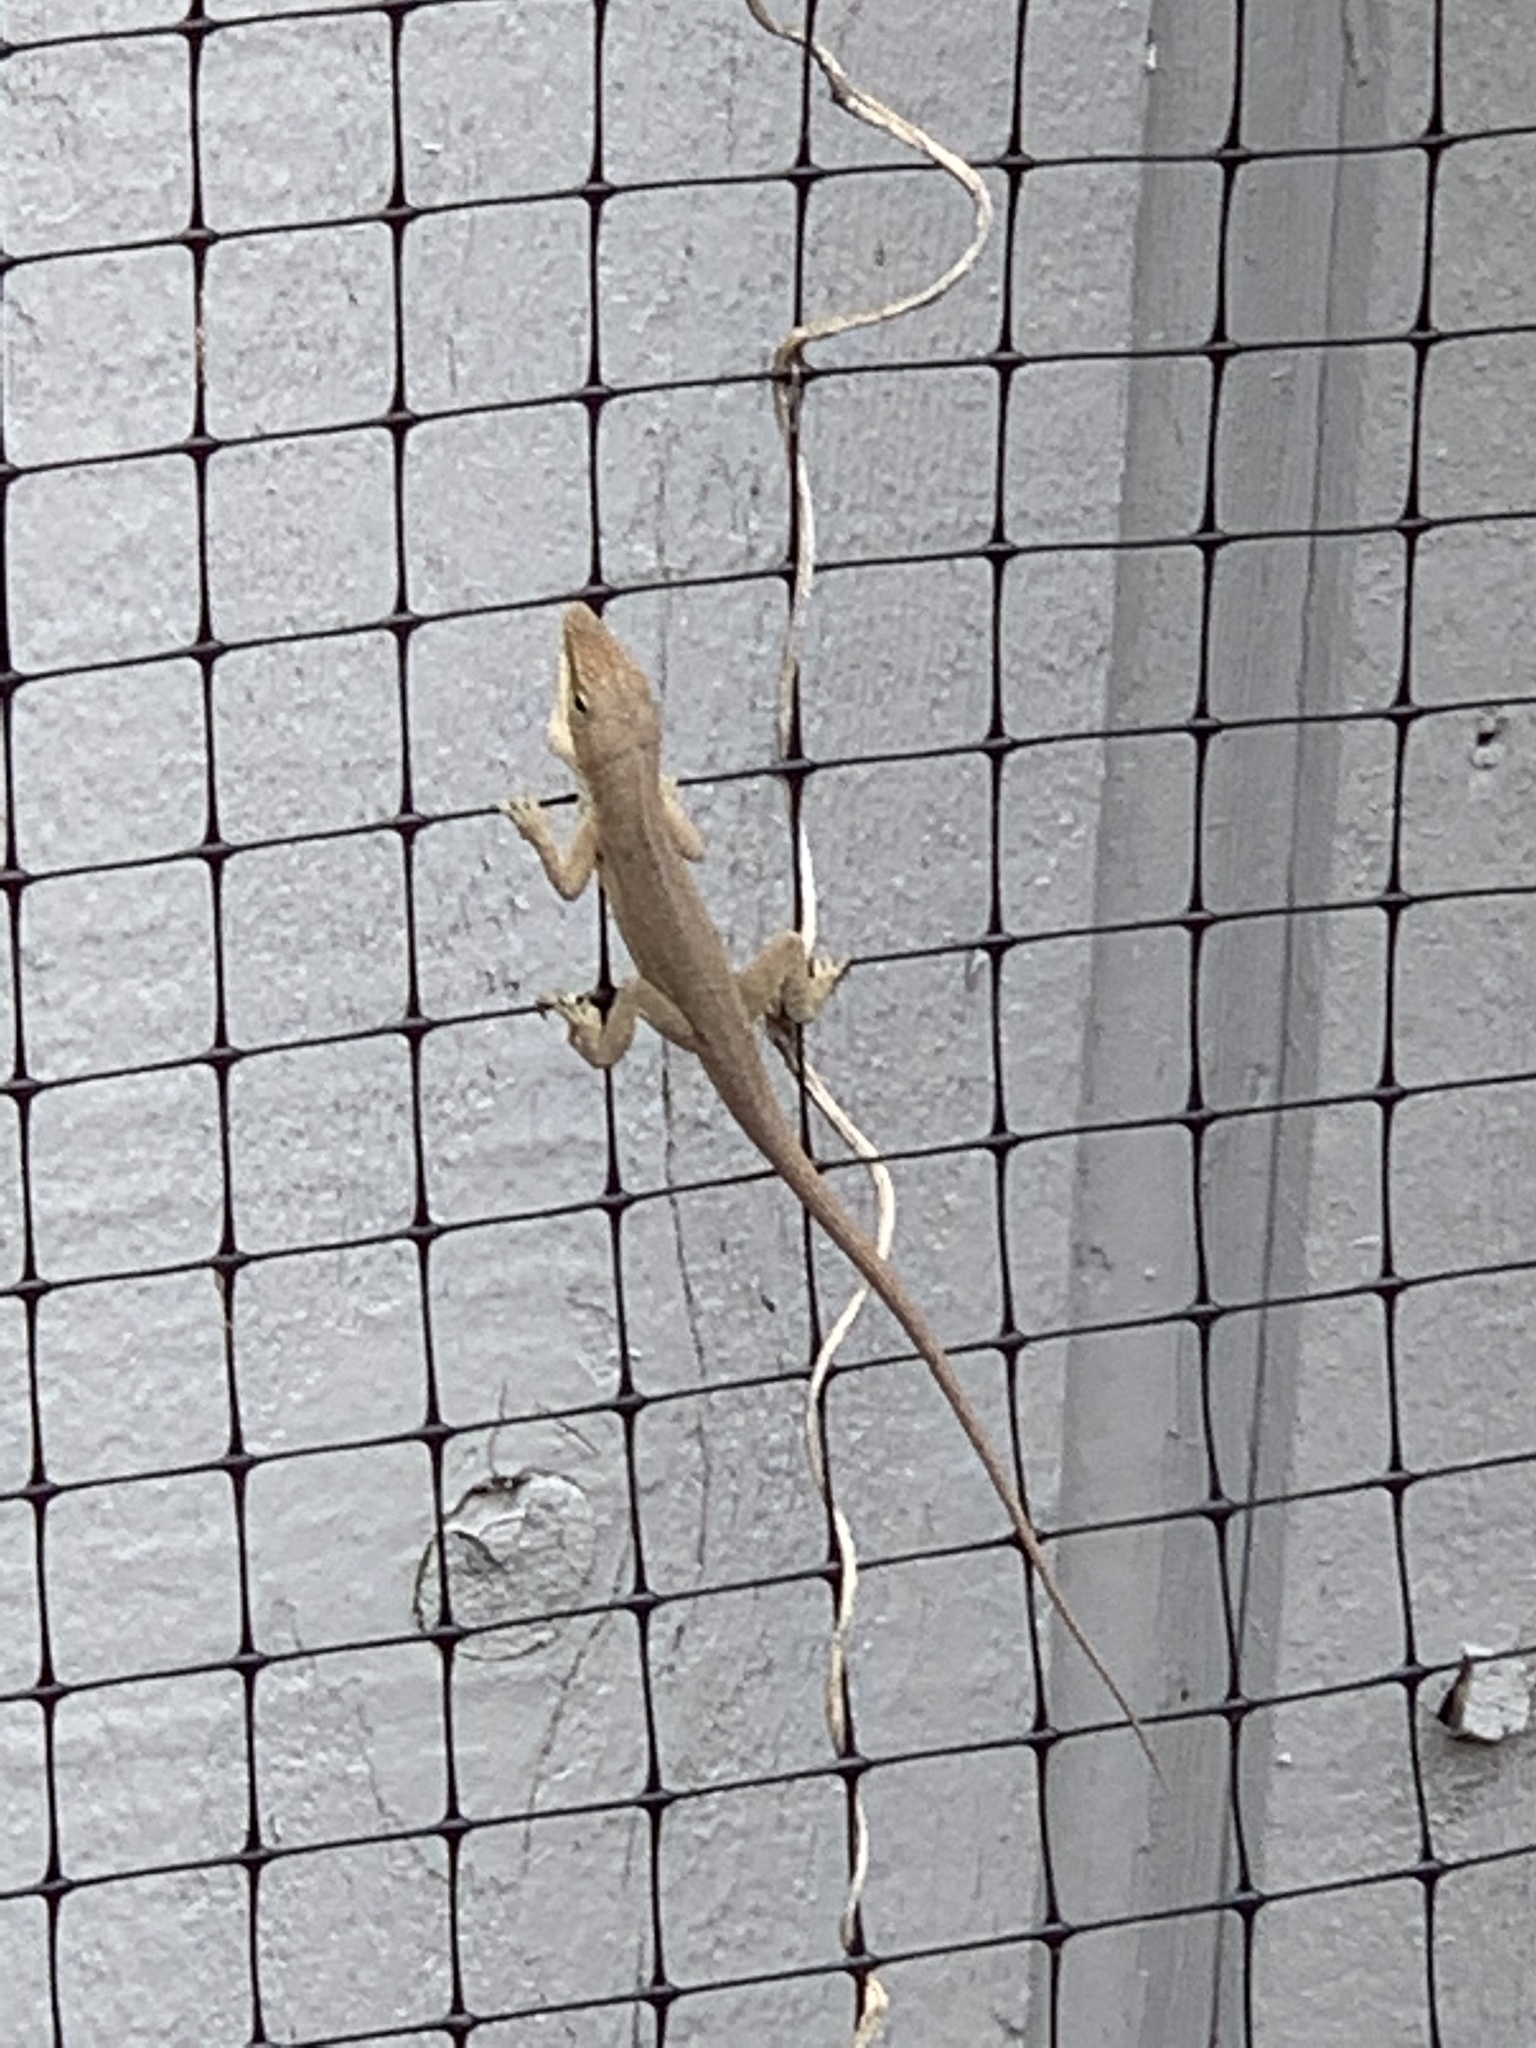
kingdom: Animalia
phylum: Chordata
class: Squamata
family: Dactyloidae
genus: Anolis
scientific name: Anolis carolinensis
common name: Green anole
